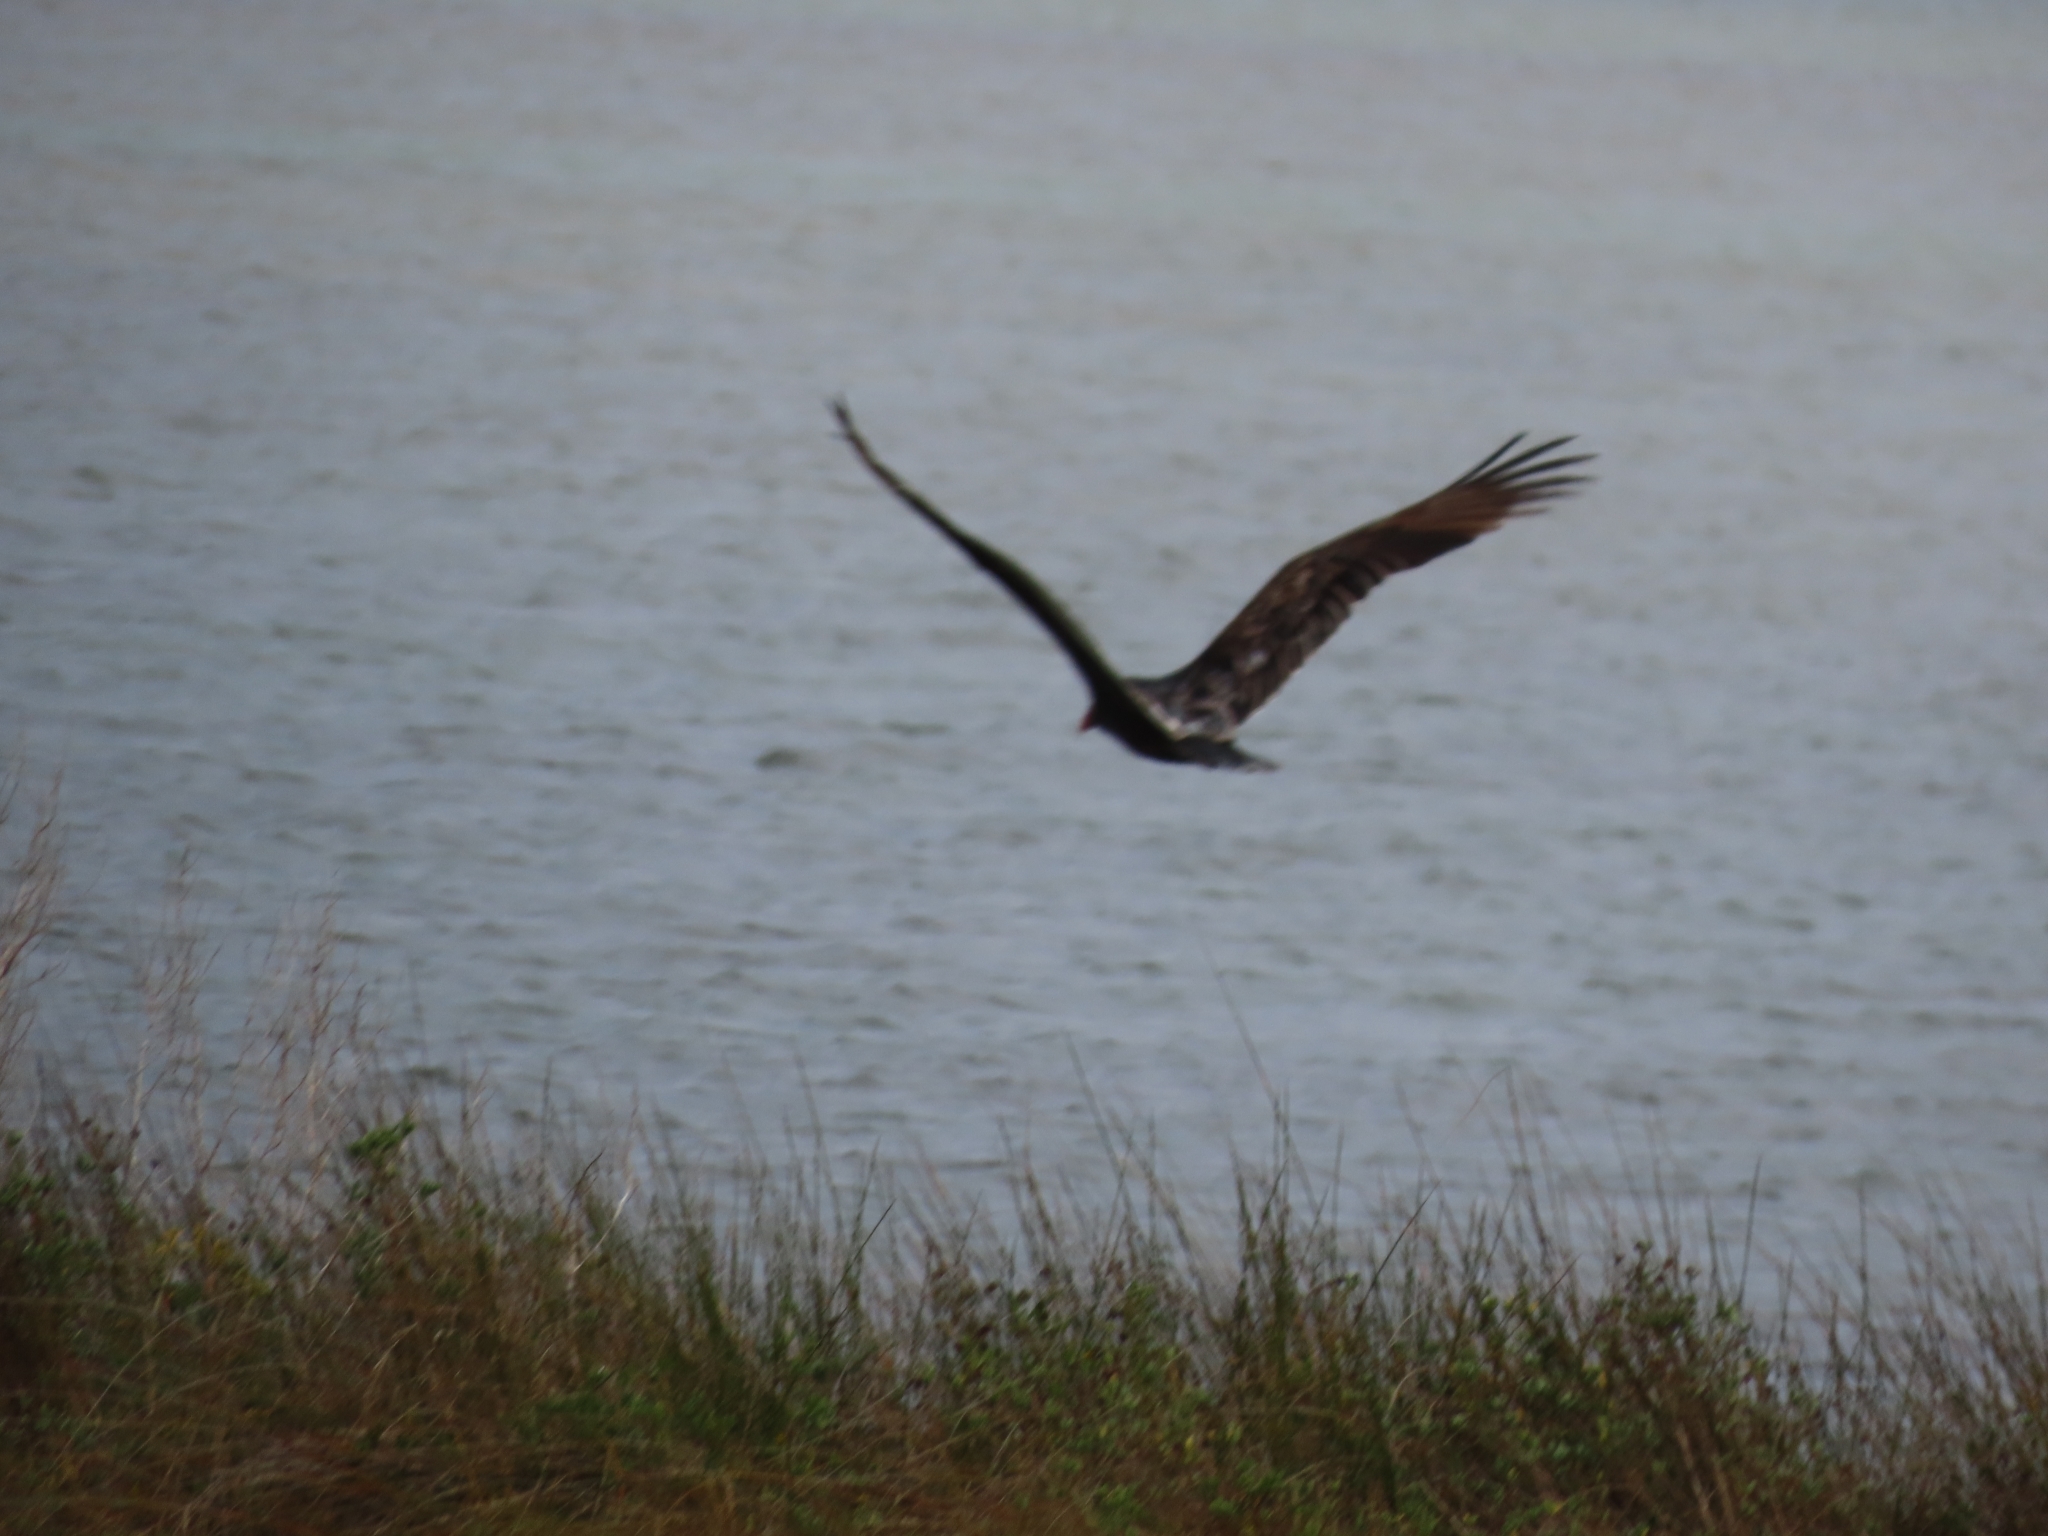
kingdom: Animalia
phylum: Chordata
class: Aves
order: Accipitriformes
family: Cathartidae
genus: Cathartes
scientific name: Cathartes aura
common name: Turkey vulture
